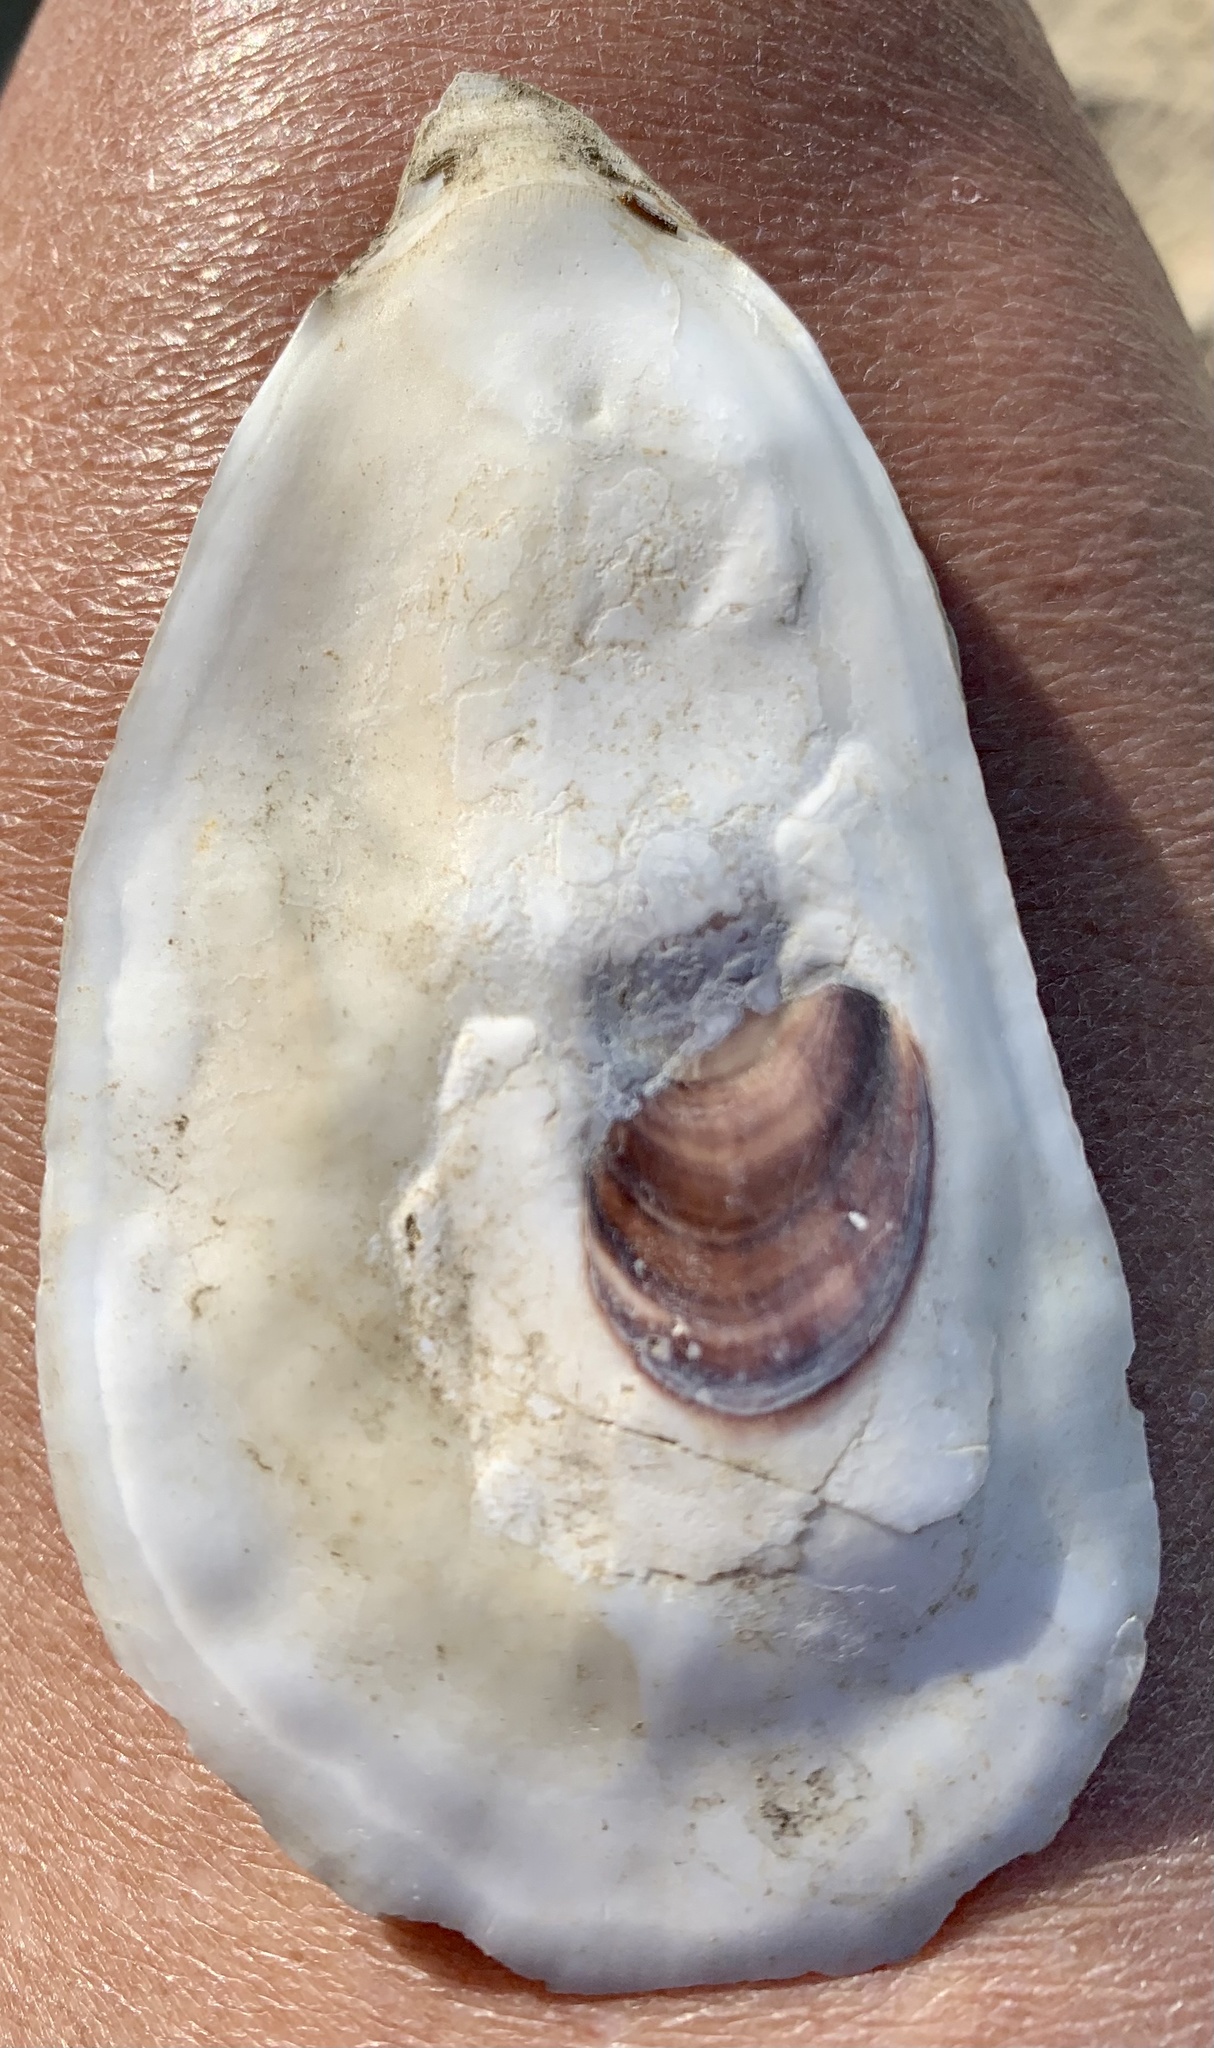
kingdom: Animalia
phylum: Mollusca
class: Bivalvia
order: Ostreida
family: Ostreidae
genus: Crassostrea
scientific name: Crassostrea virginica
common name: American oyster
